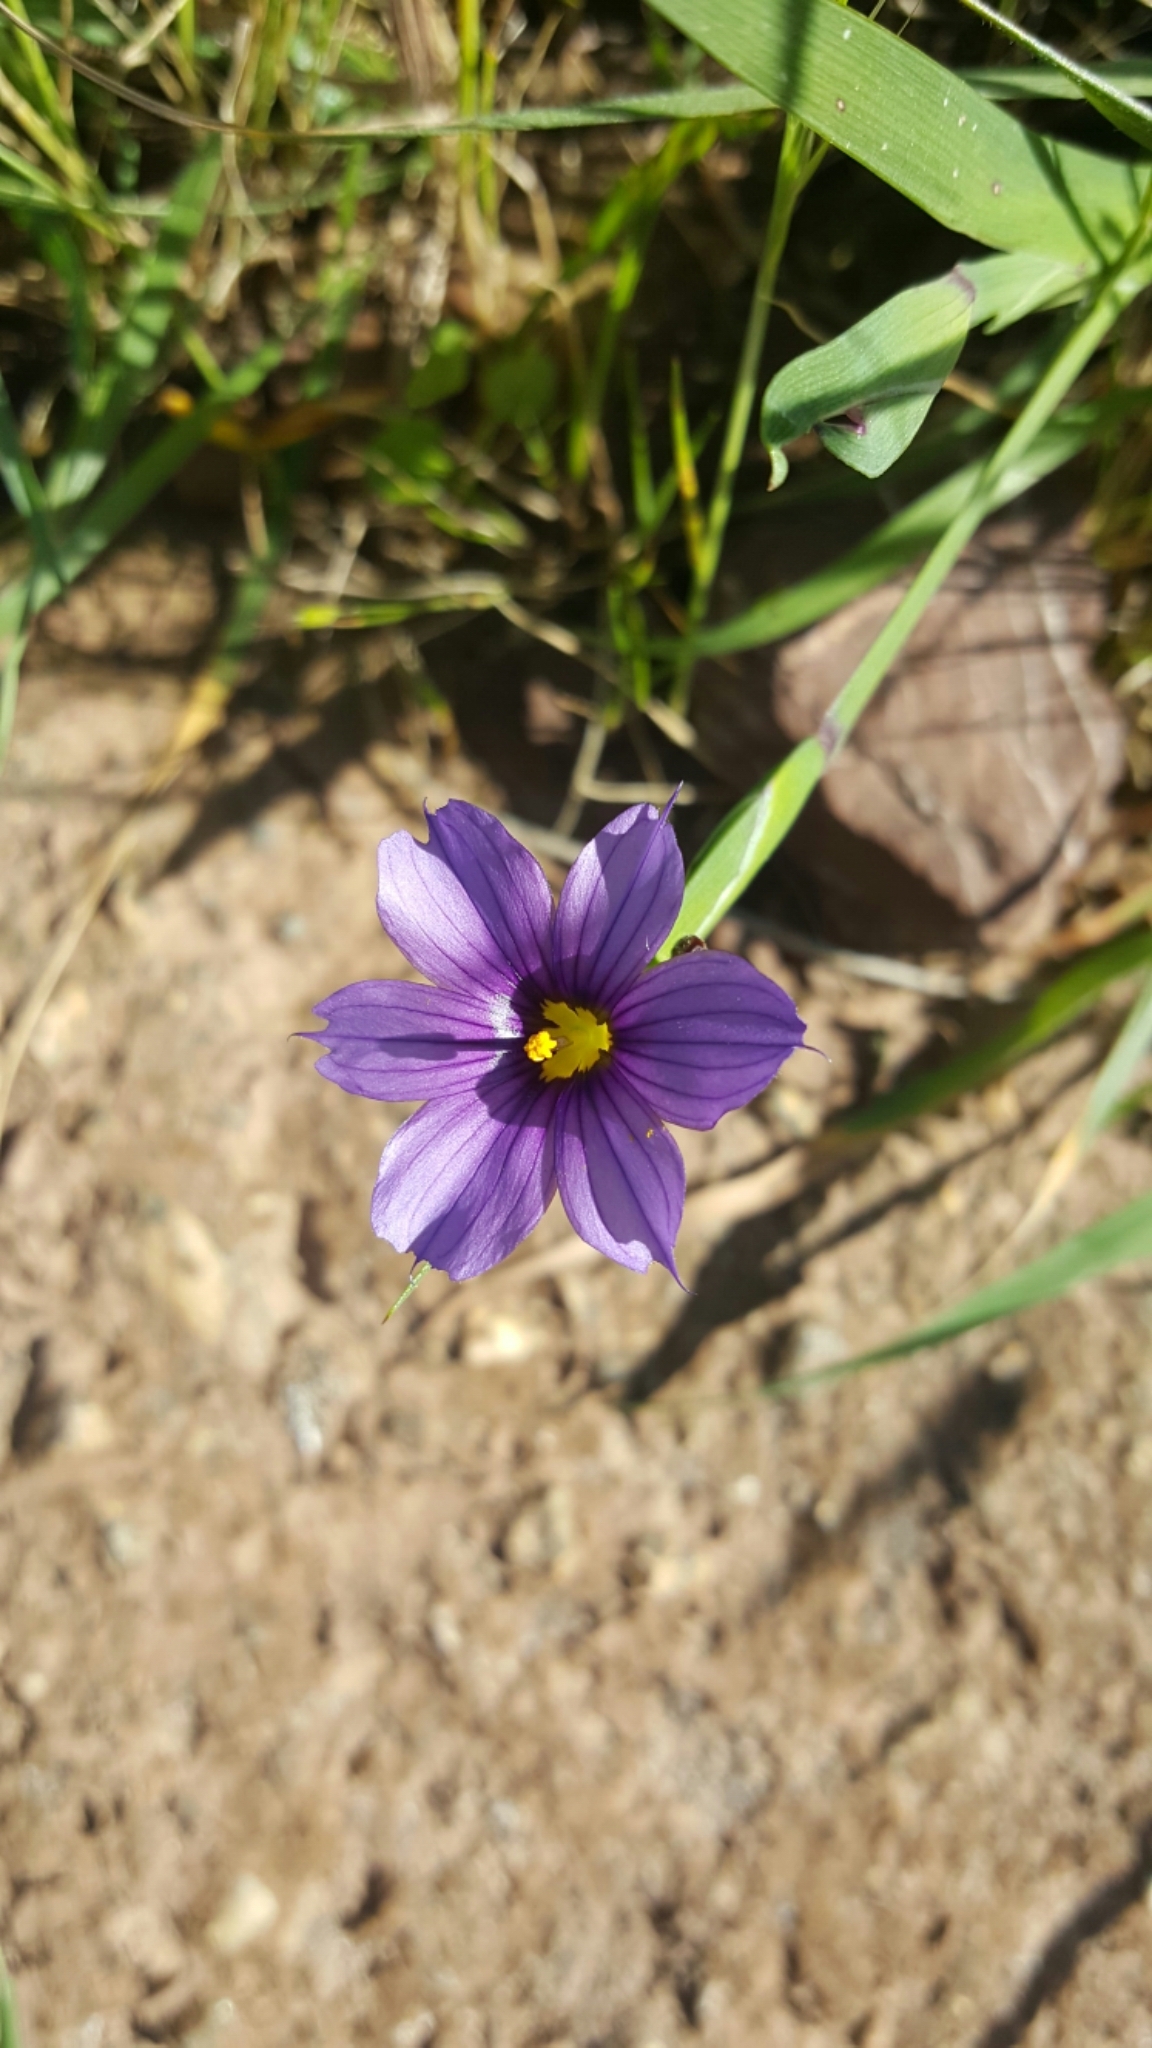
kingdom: Plantae
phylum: Tracheophyta
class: Liliopsida
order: Asparagales
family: Iridaceae
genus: Sisyrinchium
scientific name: Sisyrinchium bellum
